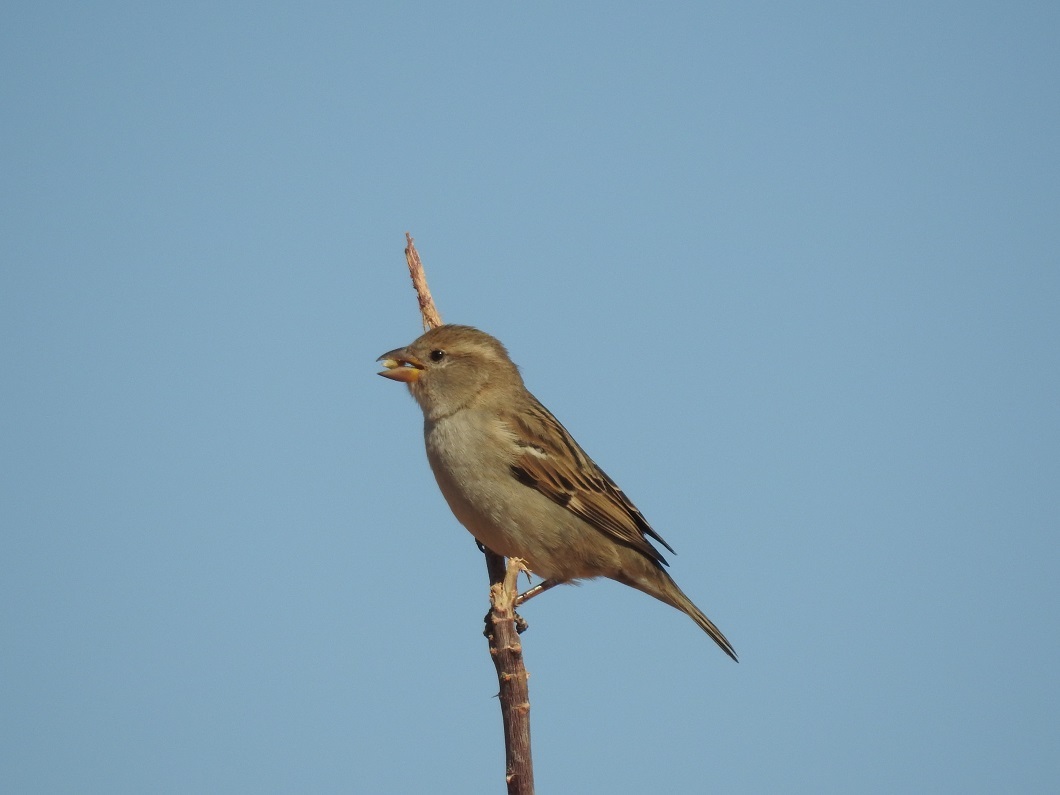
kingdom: Animalia
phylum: Chordata
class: Aves
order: Passeriformes
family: Passeridae
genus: Passer
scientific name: Passer domesticus
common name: House sparrow
